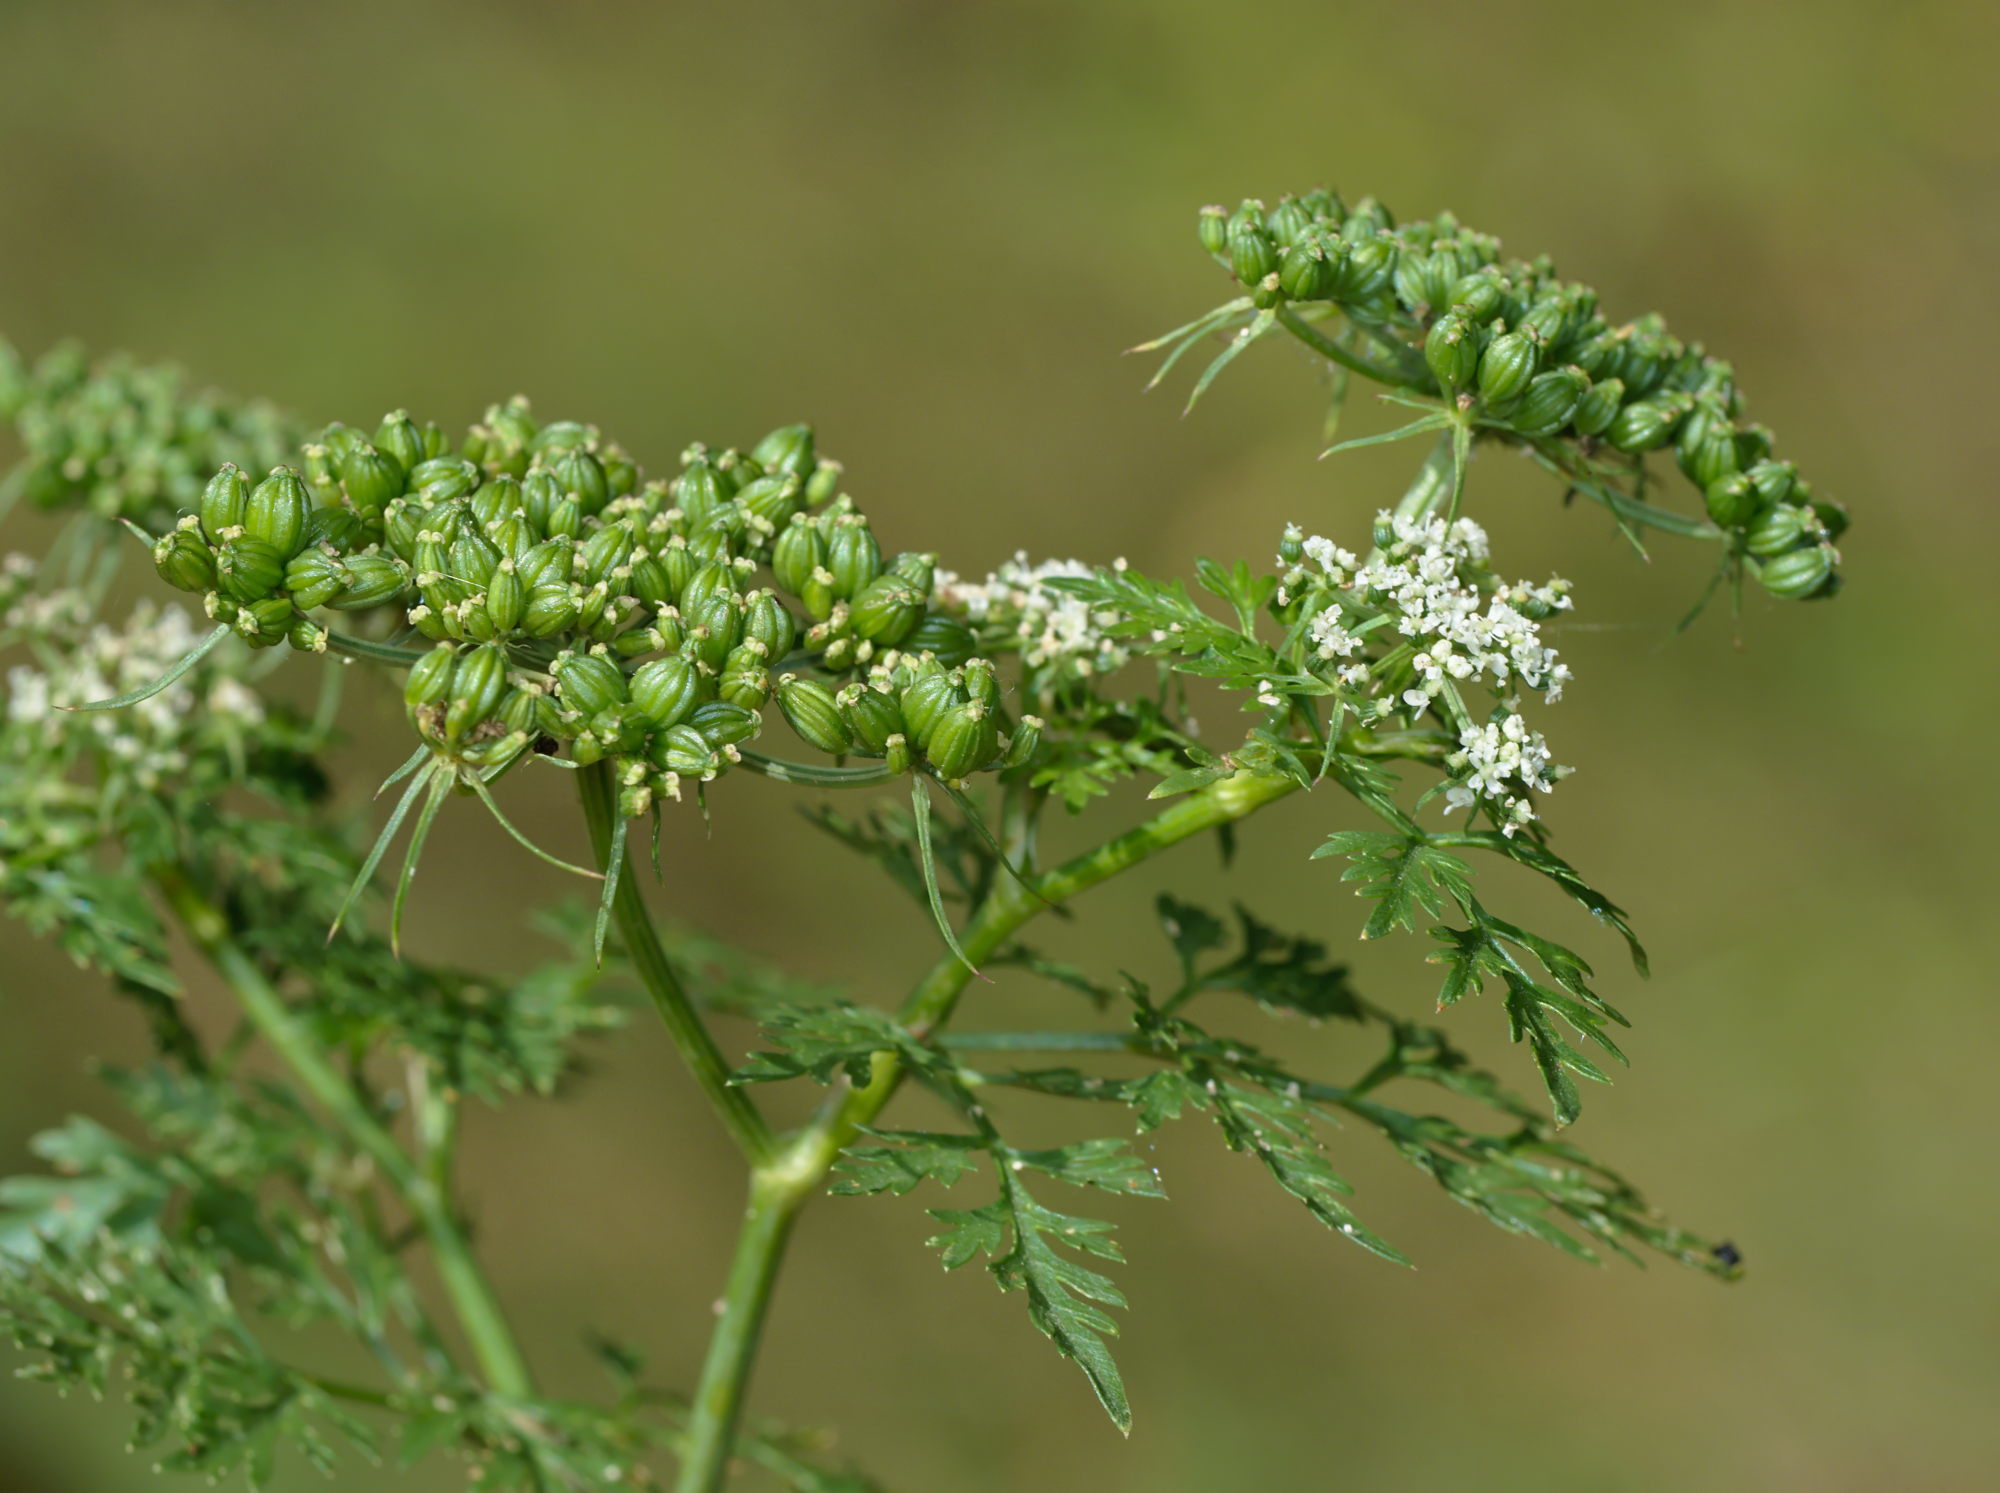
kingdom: Plantae
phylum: Tracheophyta
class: Magnoliopsida
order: Apiales
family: Apiaceae
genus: Aethusa
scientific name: Aethusa cynapium
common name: Fool's parsley
